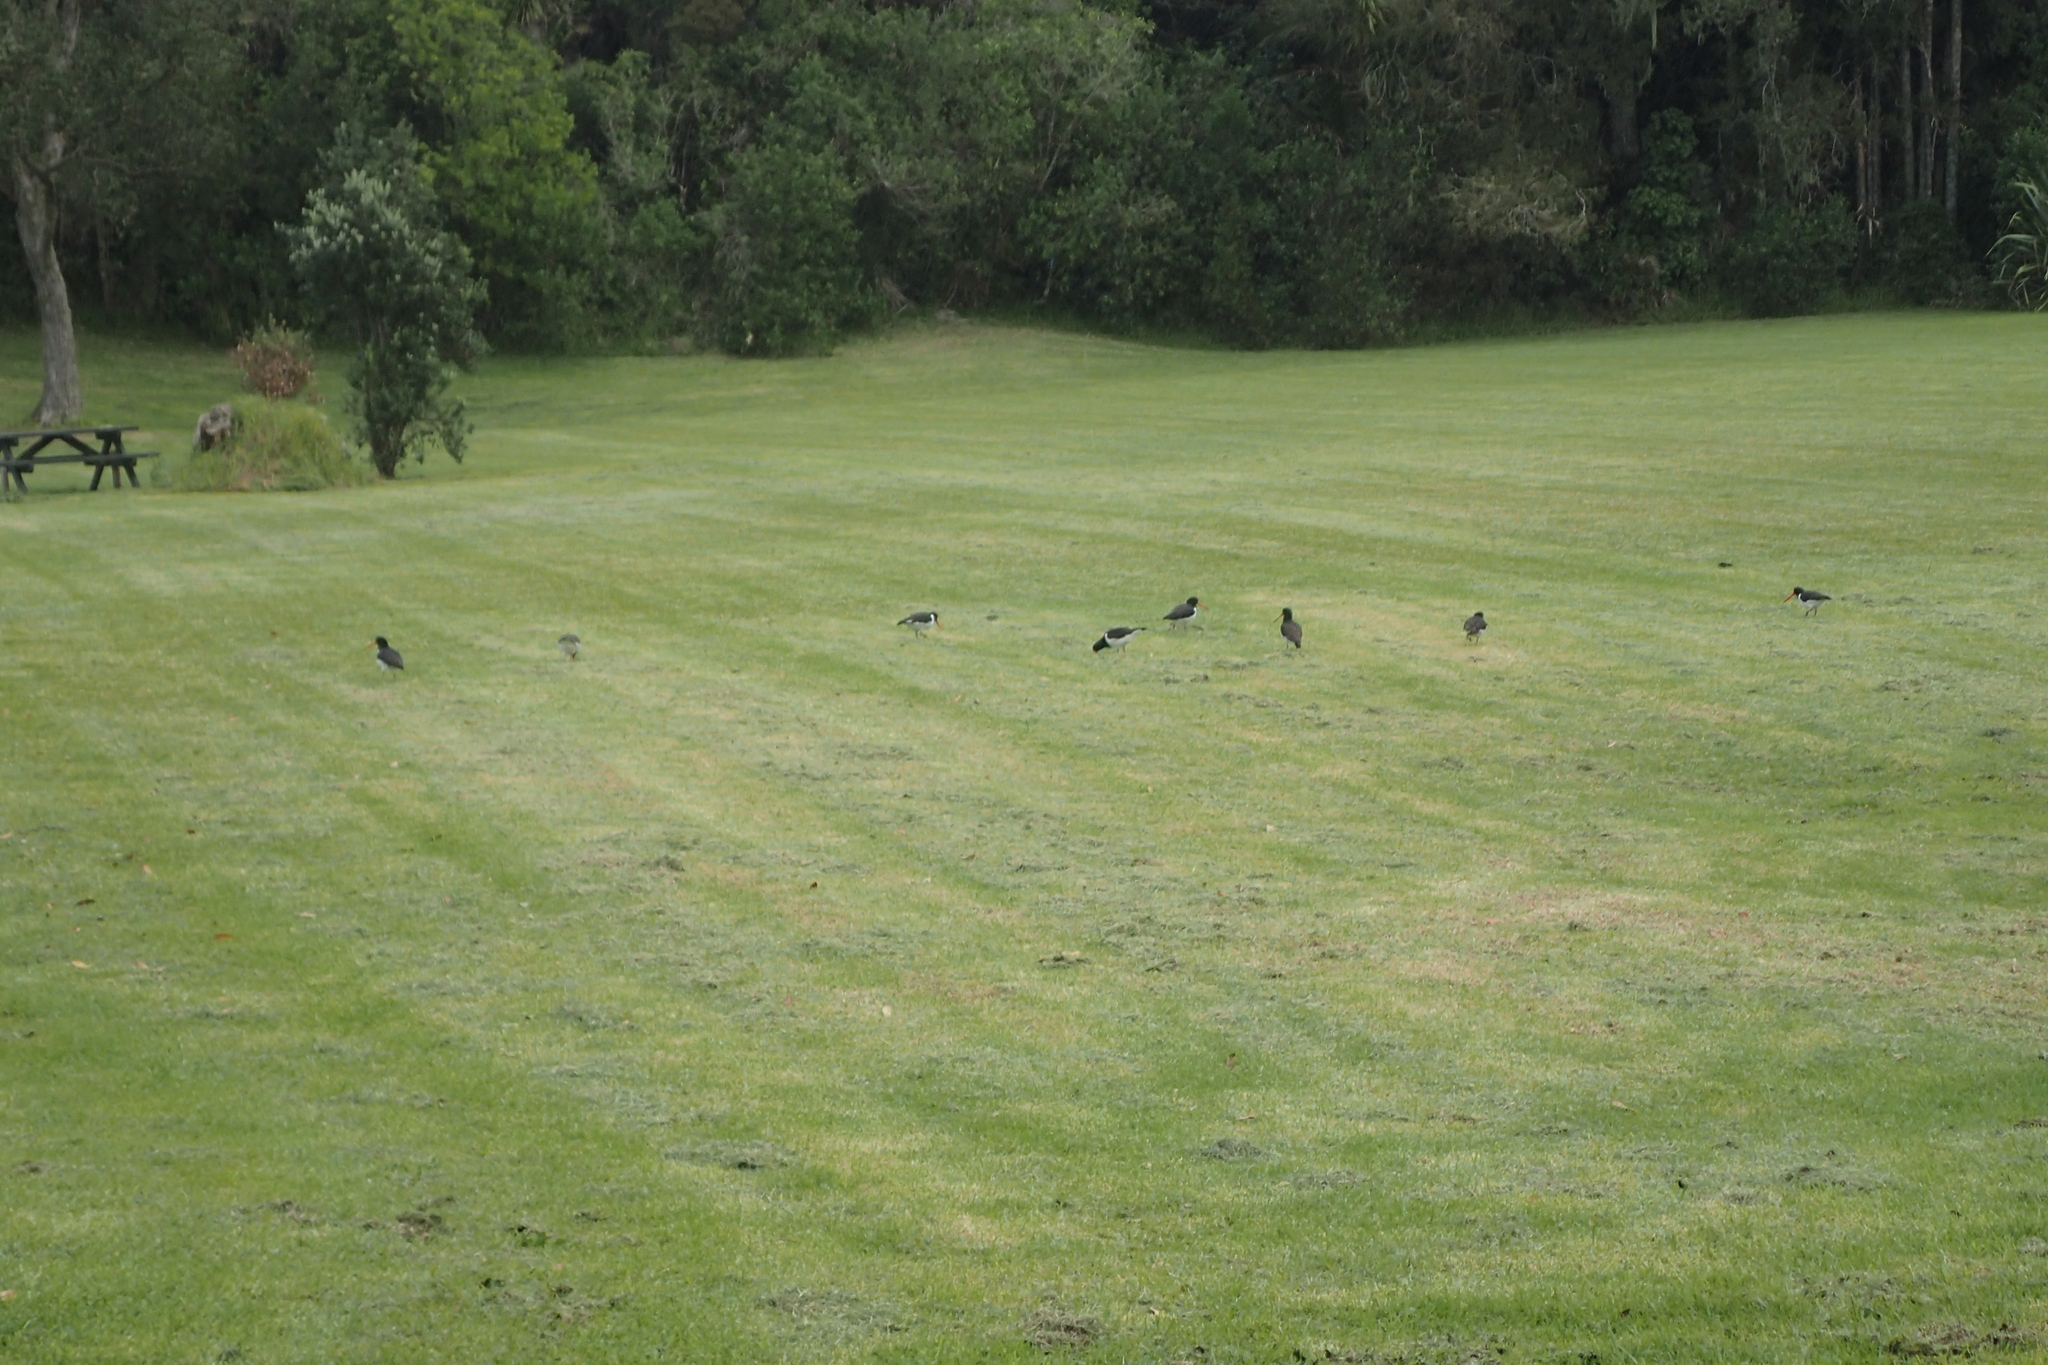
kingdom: Animalia
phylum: Chordata
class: Aves
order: Charadriiformes
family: Haematopodidae
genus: Haematopus
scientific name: Haematopus finschi
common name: South island oystercatcher
